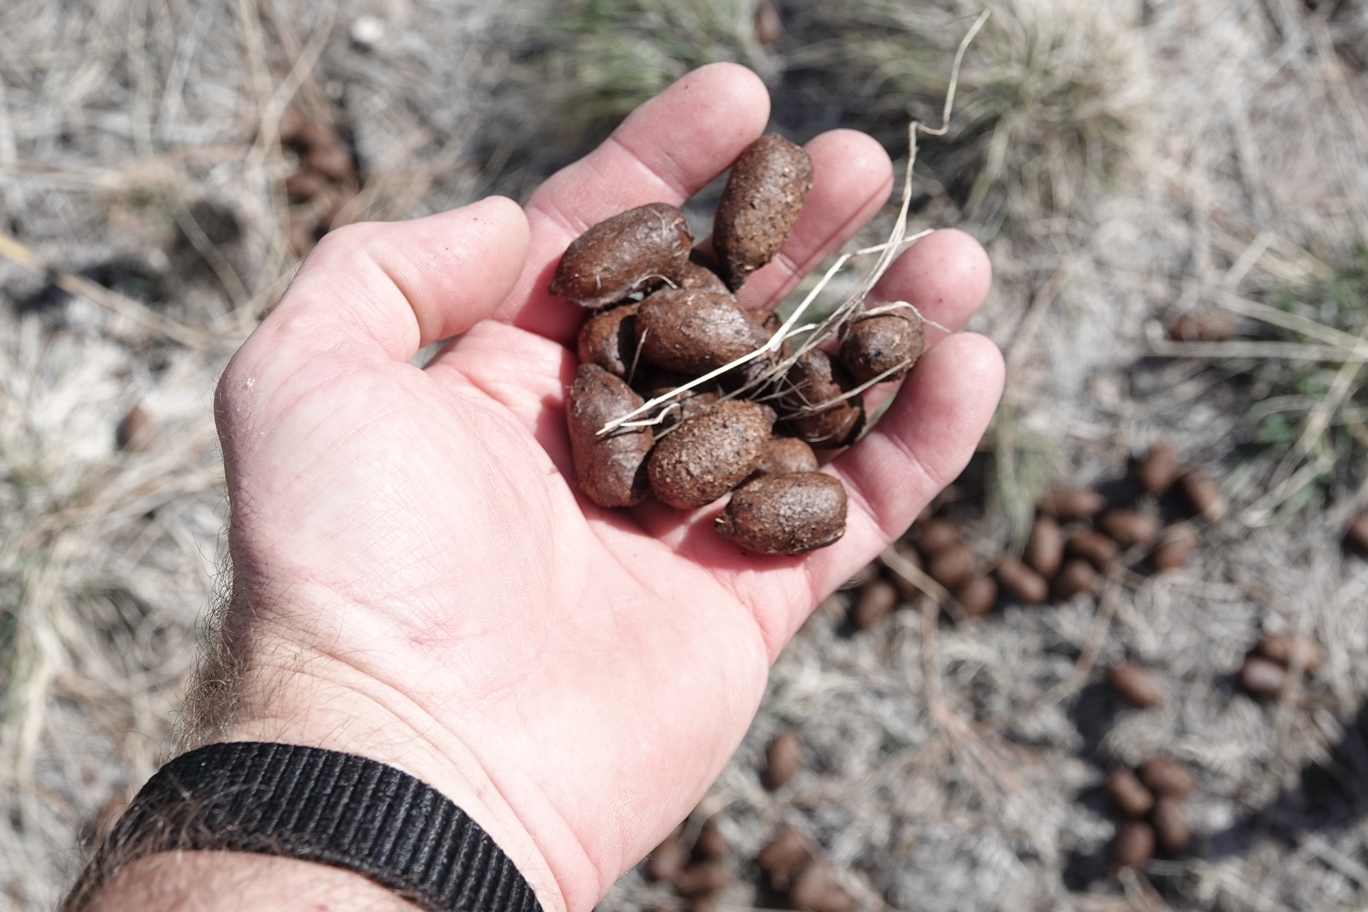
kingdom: Animalia
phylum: Chordata
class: Mammalia
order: Artiodactyla
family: Cervidae
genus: Alces
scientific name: Alces alces
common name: Moose
